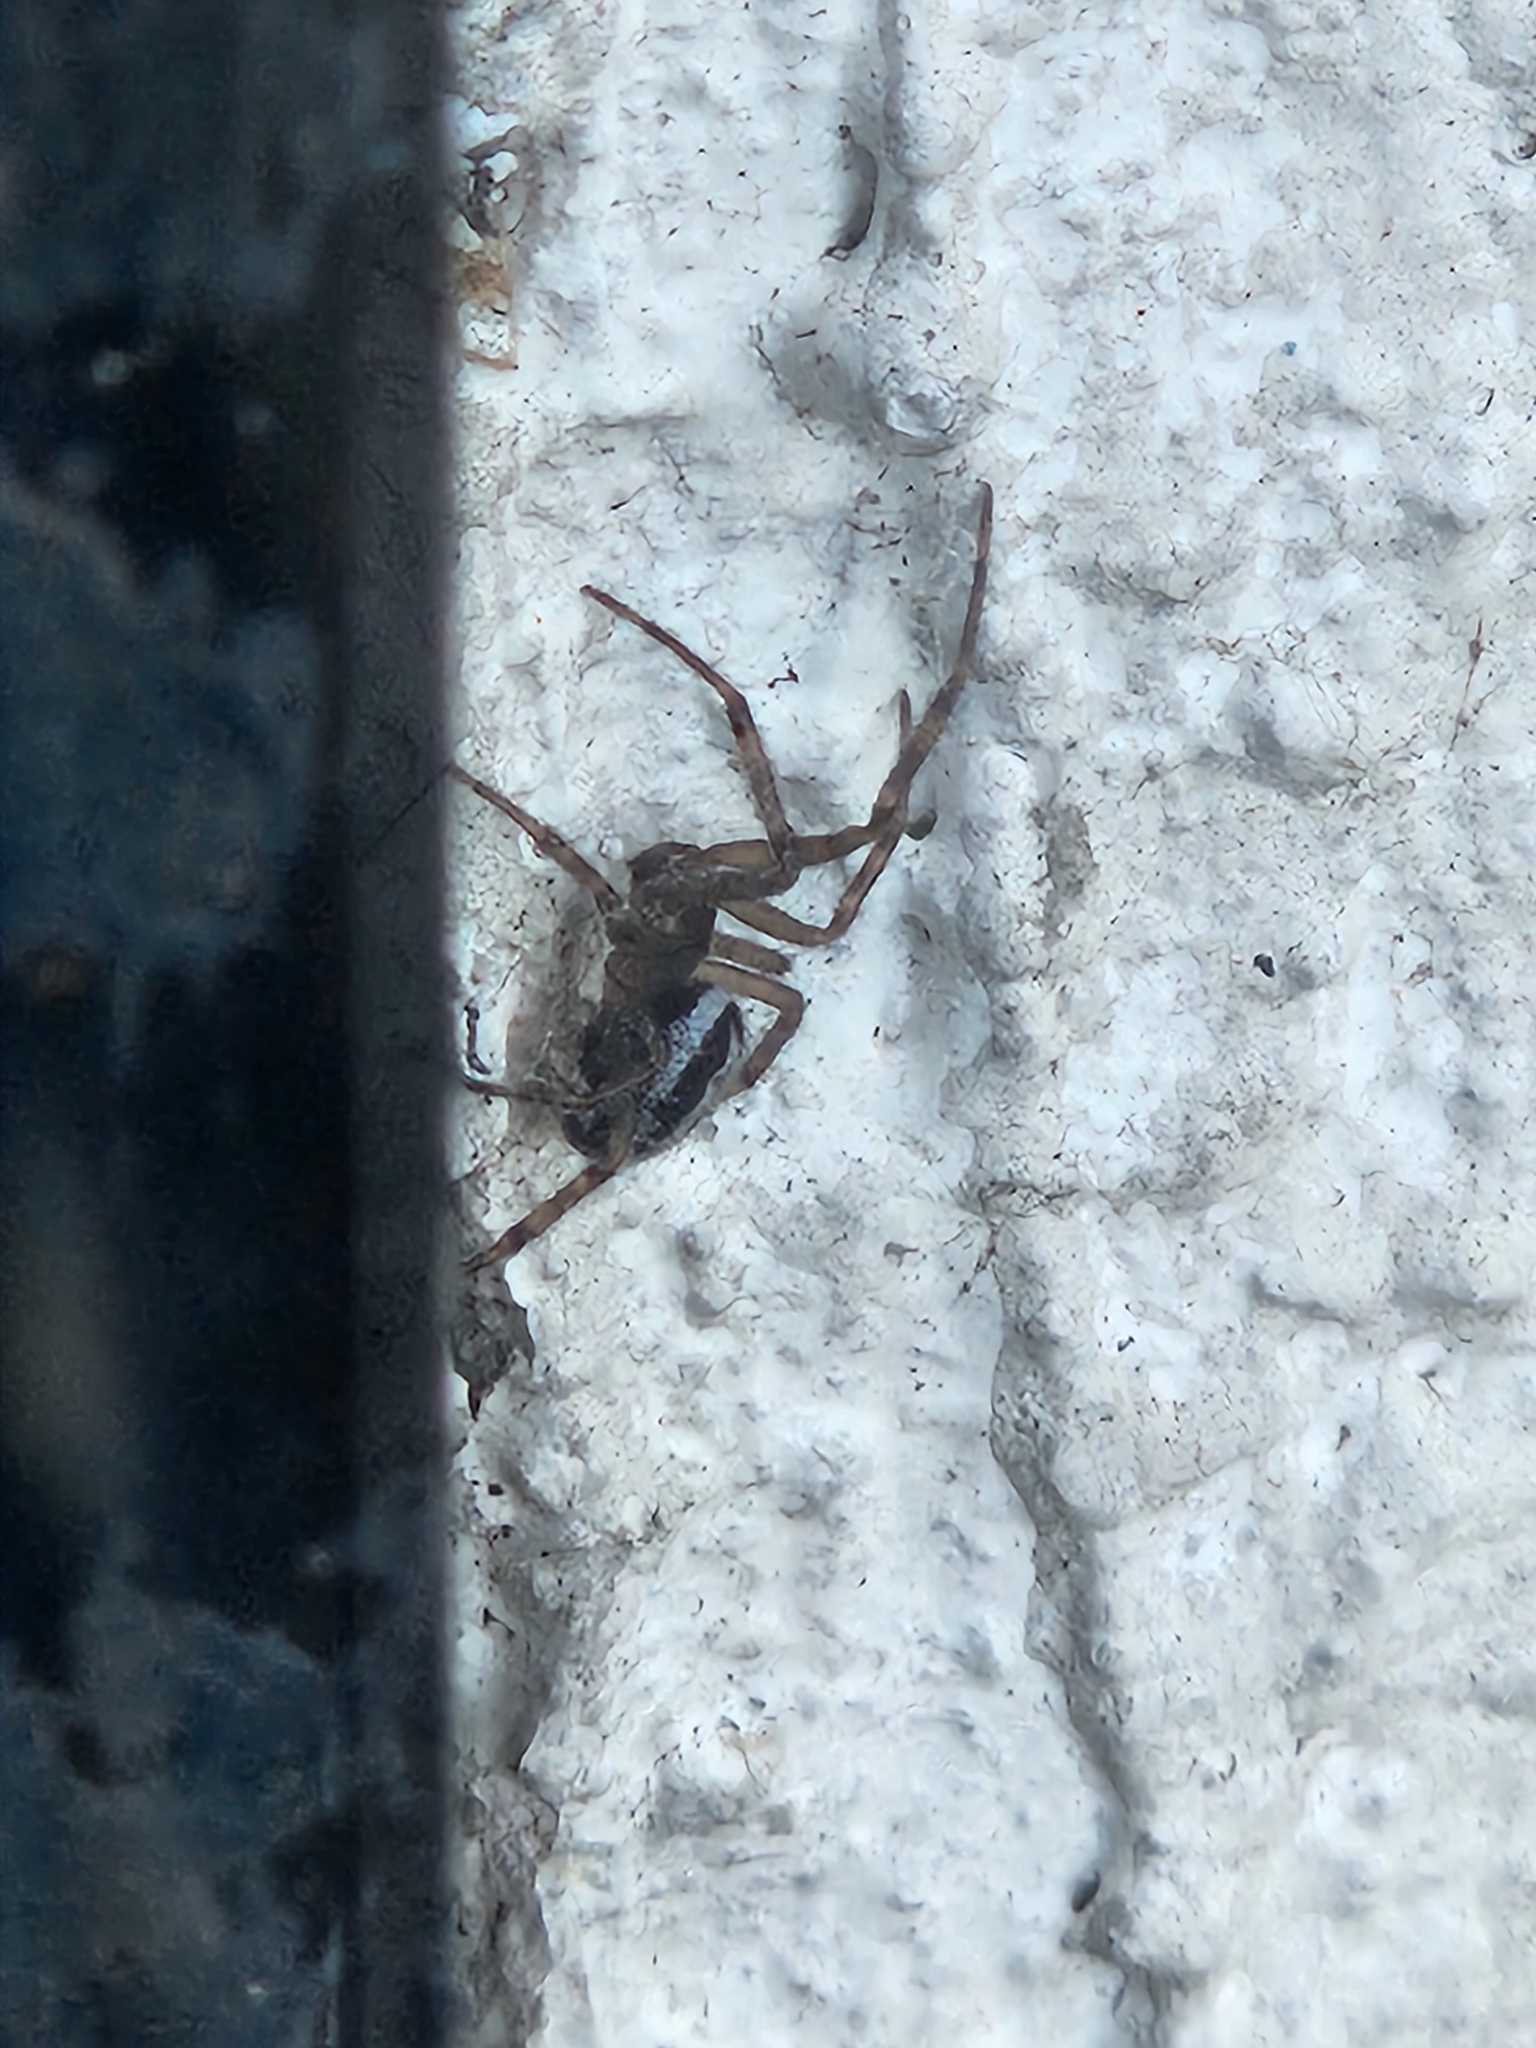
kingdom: Animalia
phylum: Arthropoda
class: Arachnida
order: Araneae
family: Theridiidae
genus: Steatoda
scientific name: Steatoda nobilis
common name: Cobweb weaver
